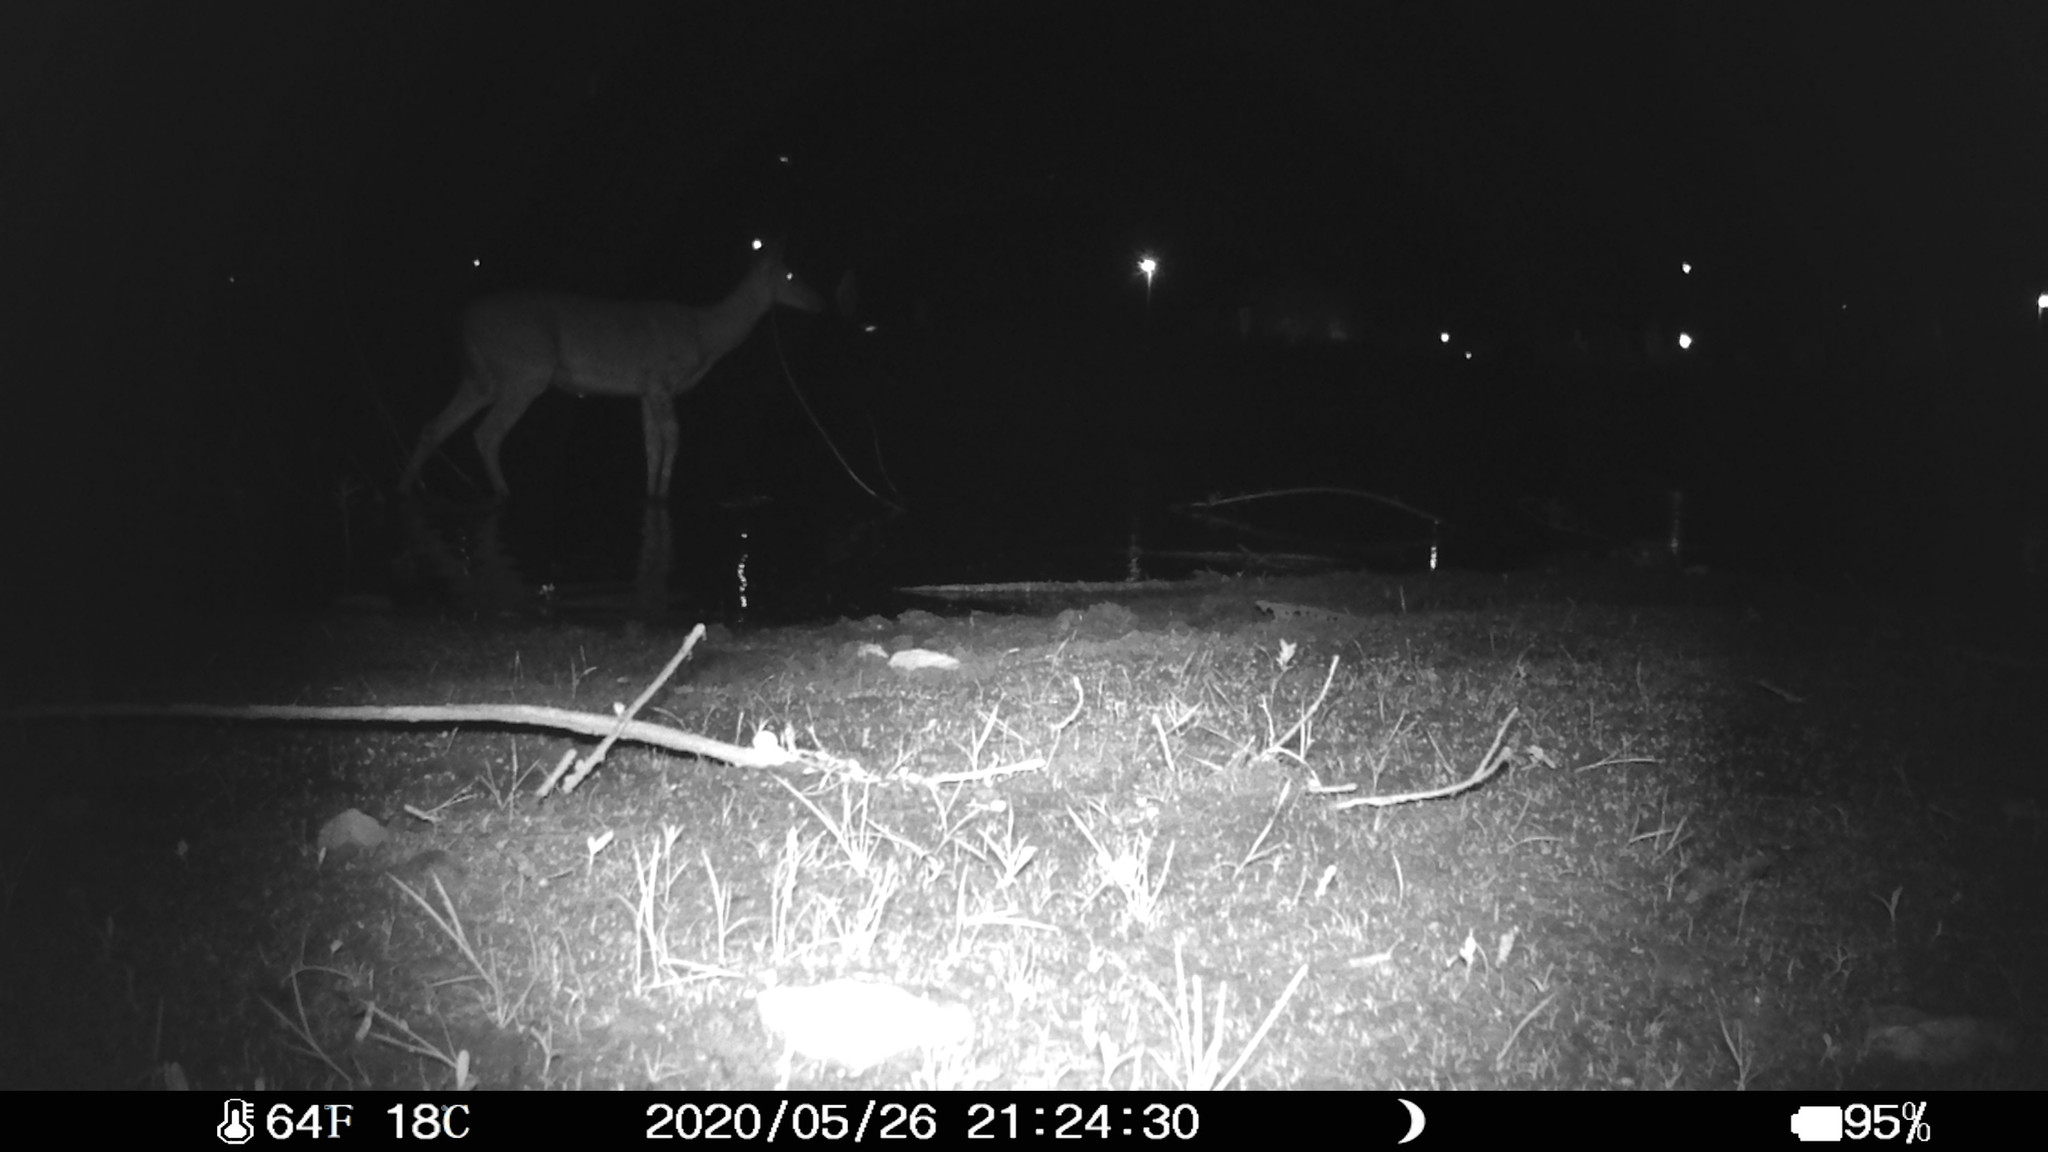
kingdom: Animalia
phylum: Chordata
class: Mammalia
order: Artiodactyla
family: Cervidae
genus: Odocoileus
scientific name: Odocoileus virginianus
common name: White-tailed deer
